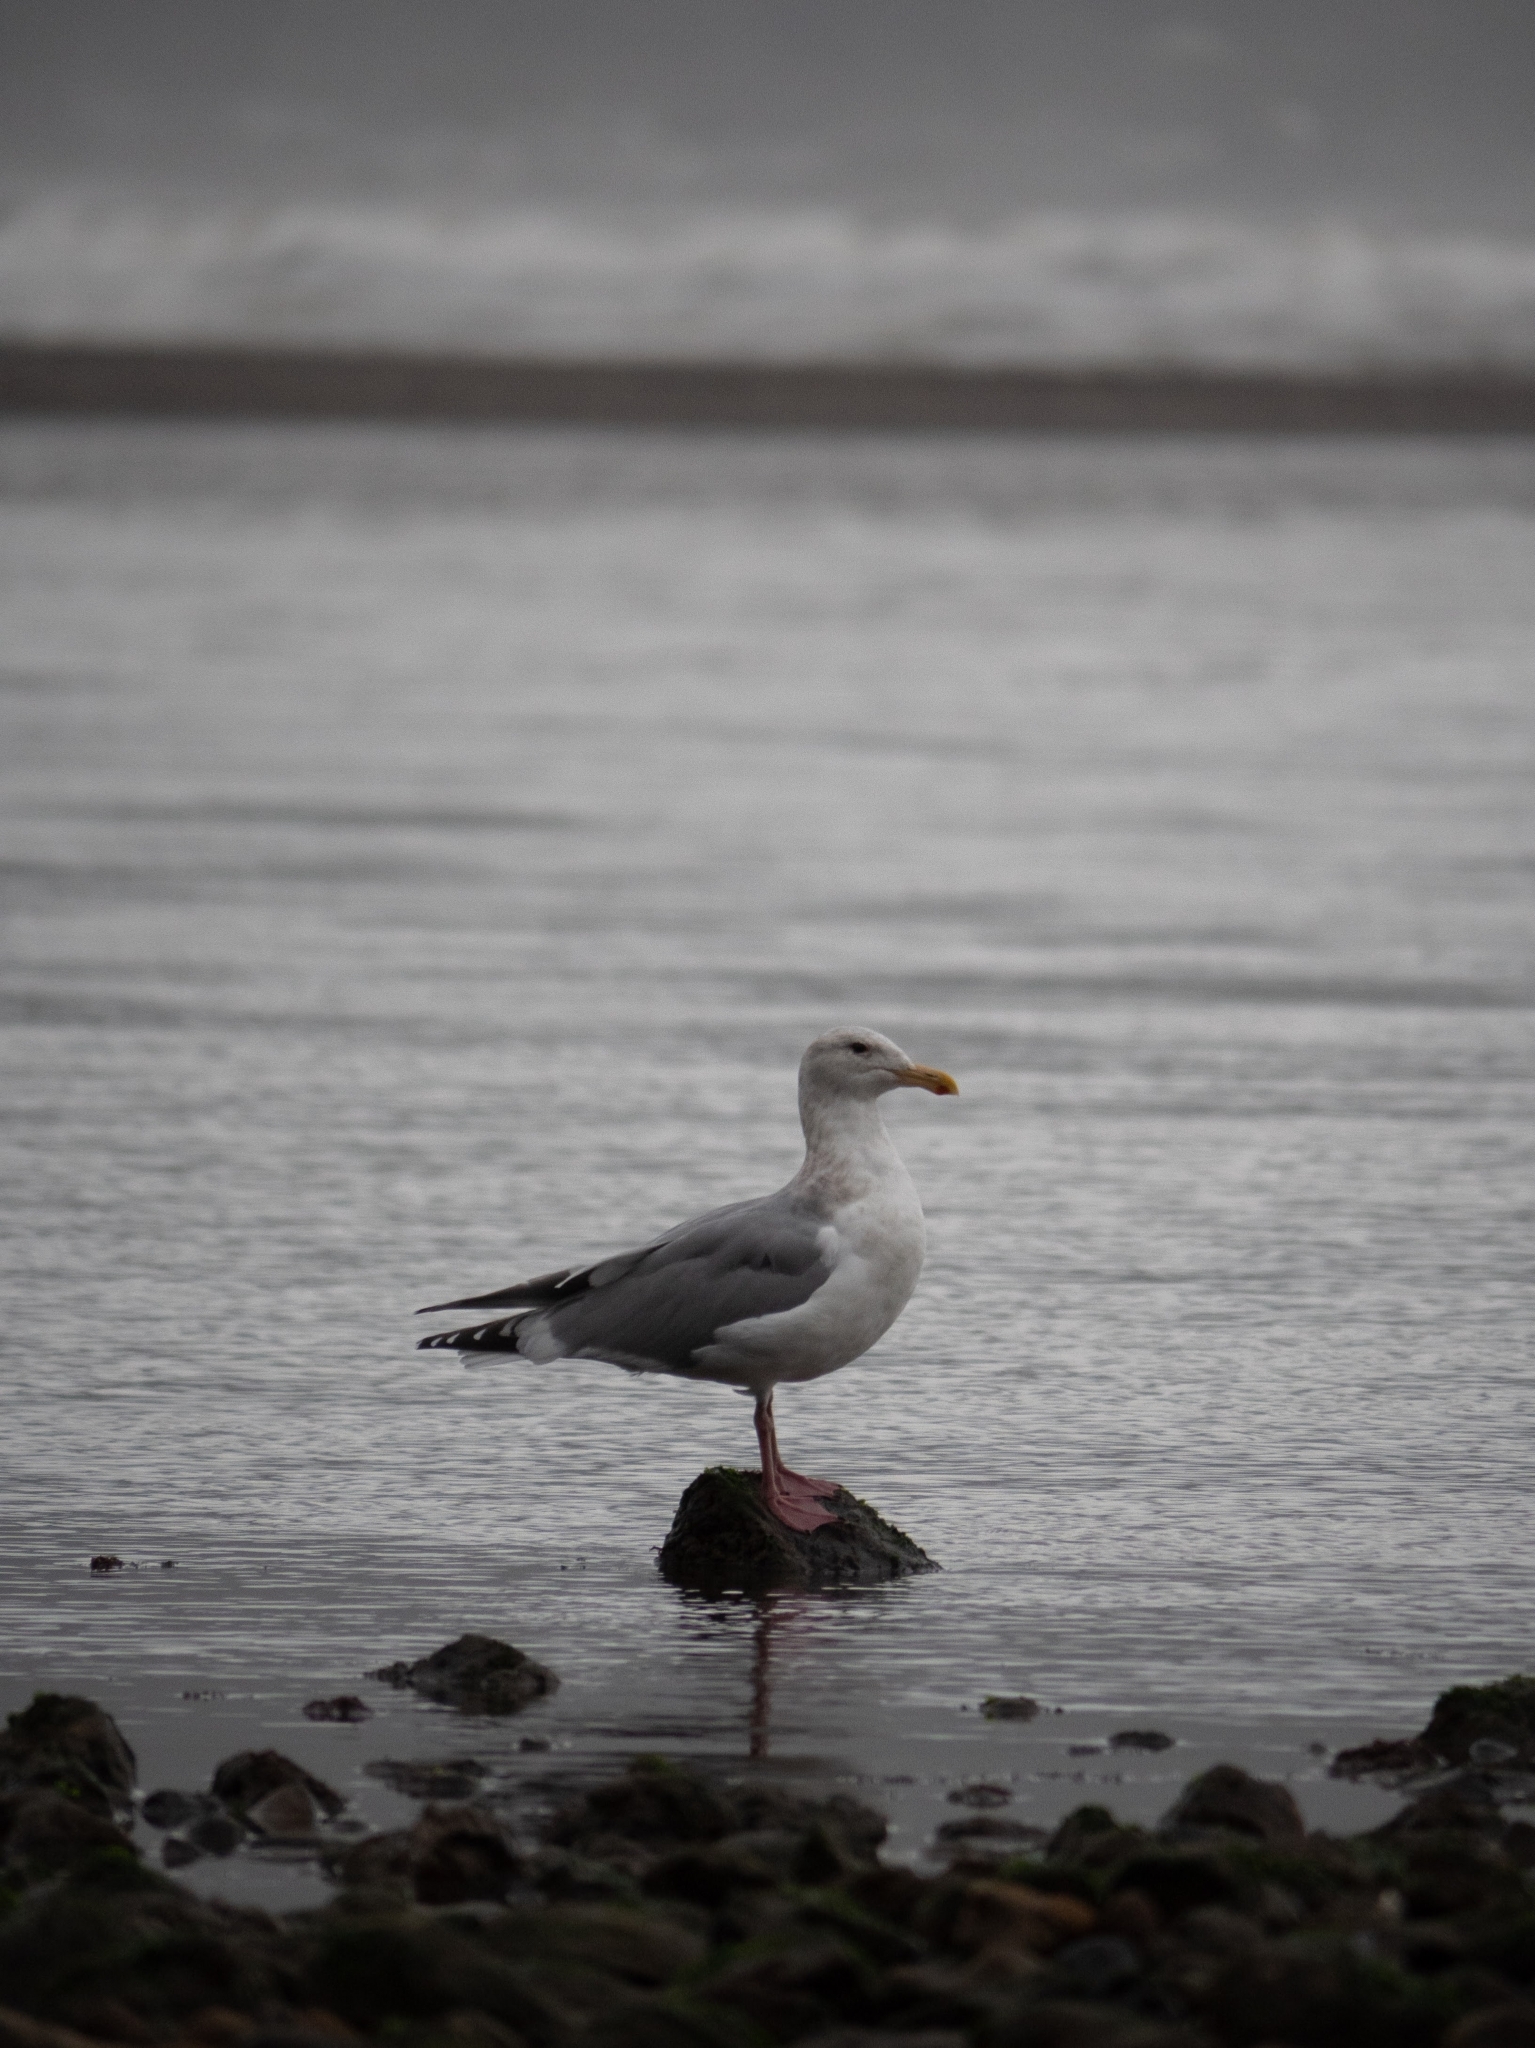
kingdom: Animalia
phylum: Chordata
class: Aves
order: Charadriiformes
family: Laridae
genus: Larus
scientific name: Larus
